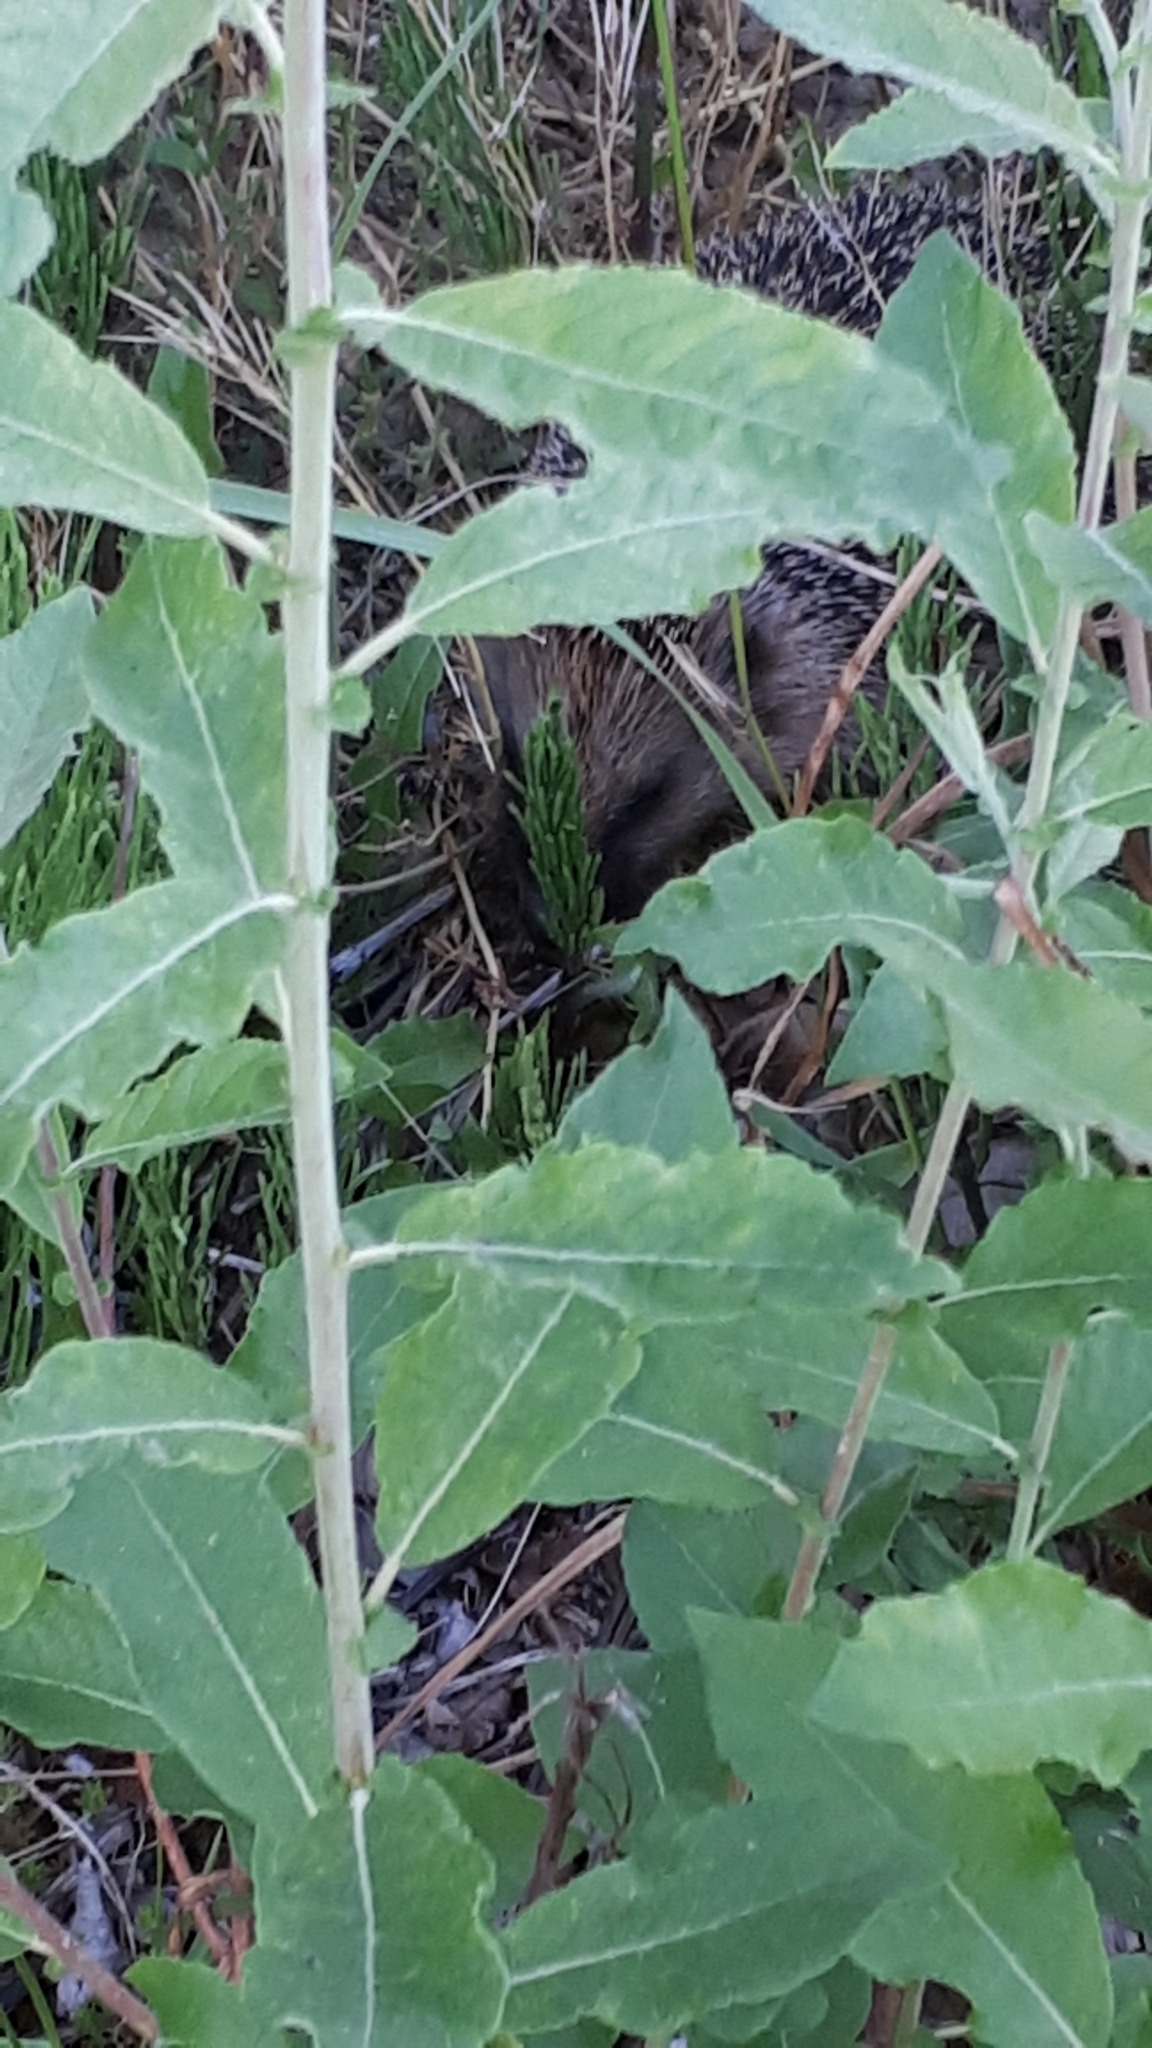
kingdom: Animalia
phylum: Chordata
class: Mammalia
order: Erinaceomorpha
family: Erinaceidae
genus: Erinaceus
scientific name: Erinaceus europaeus
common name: West european hedgehog
